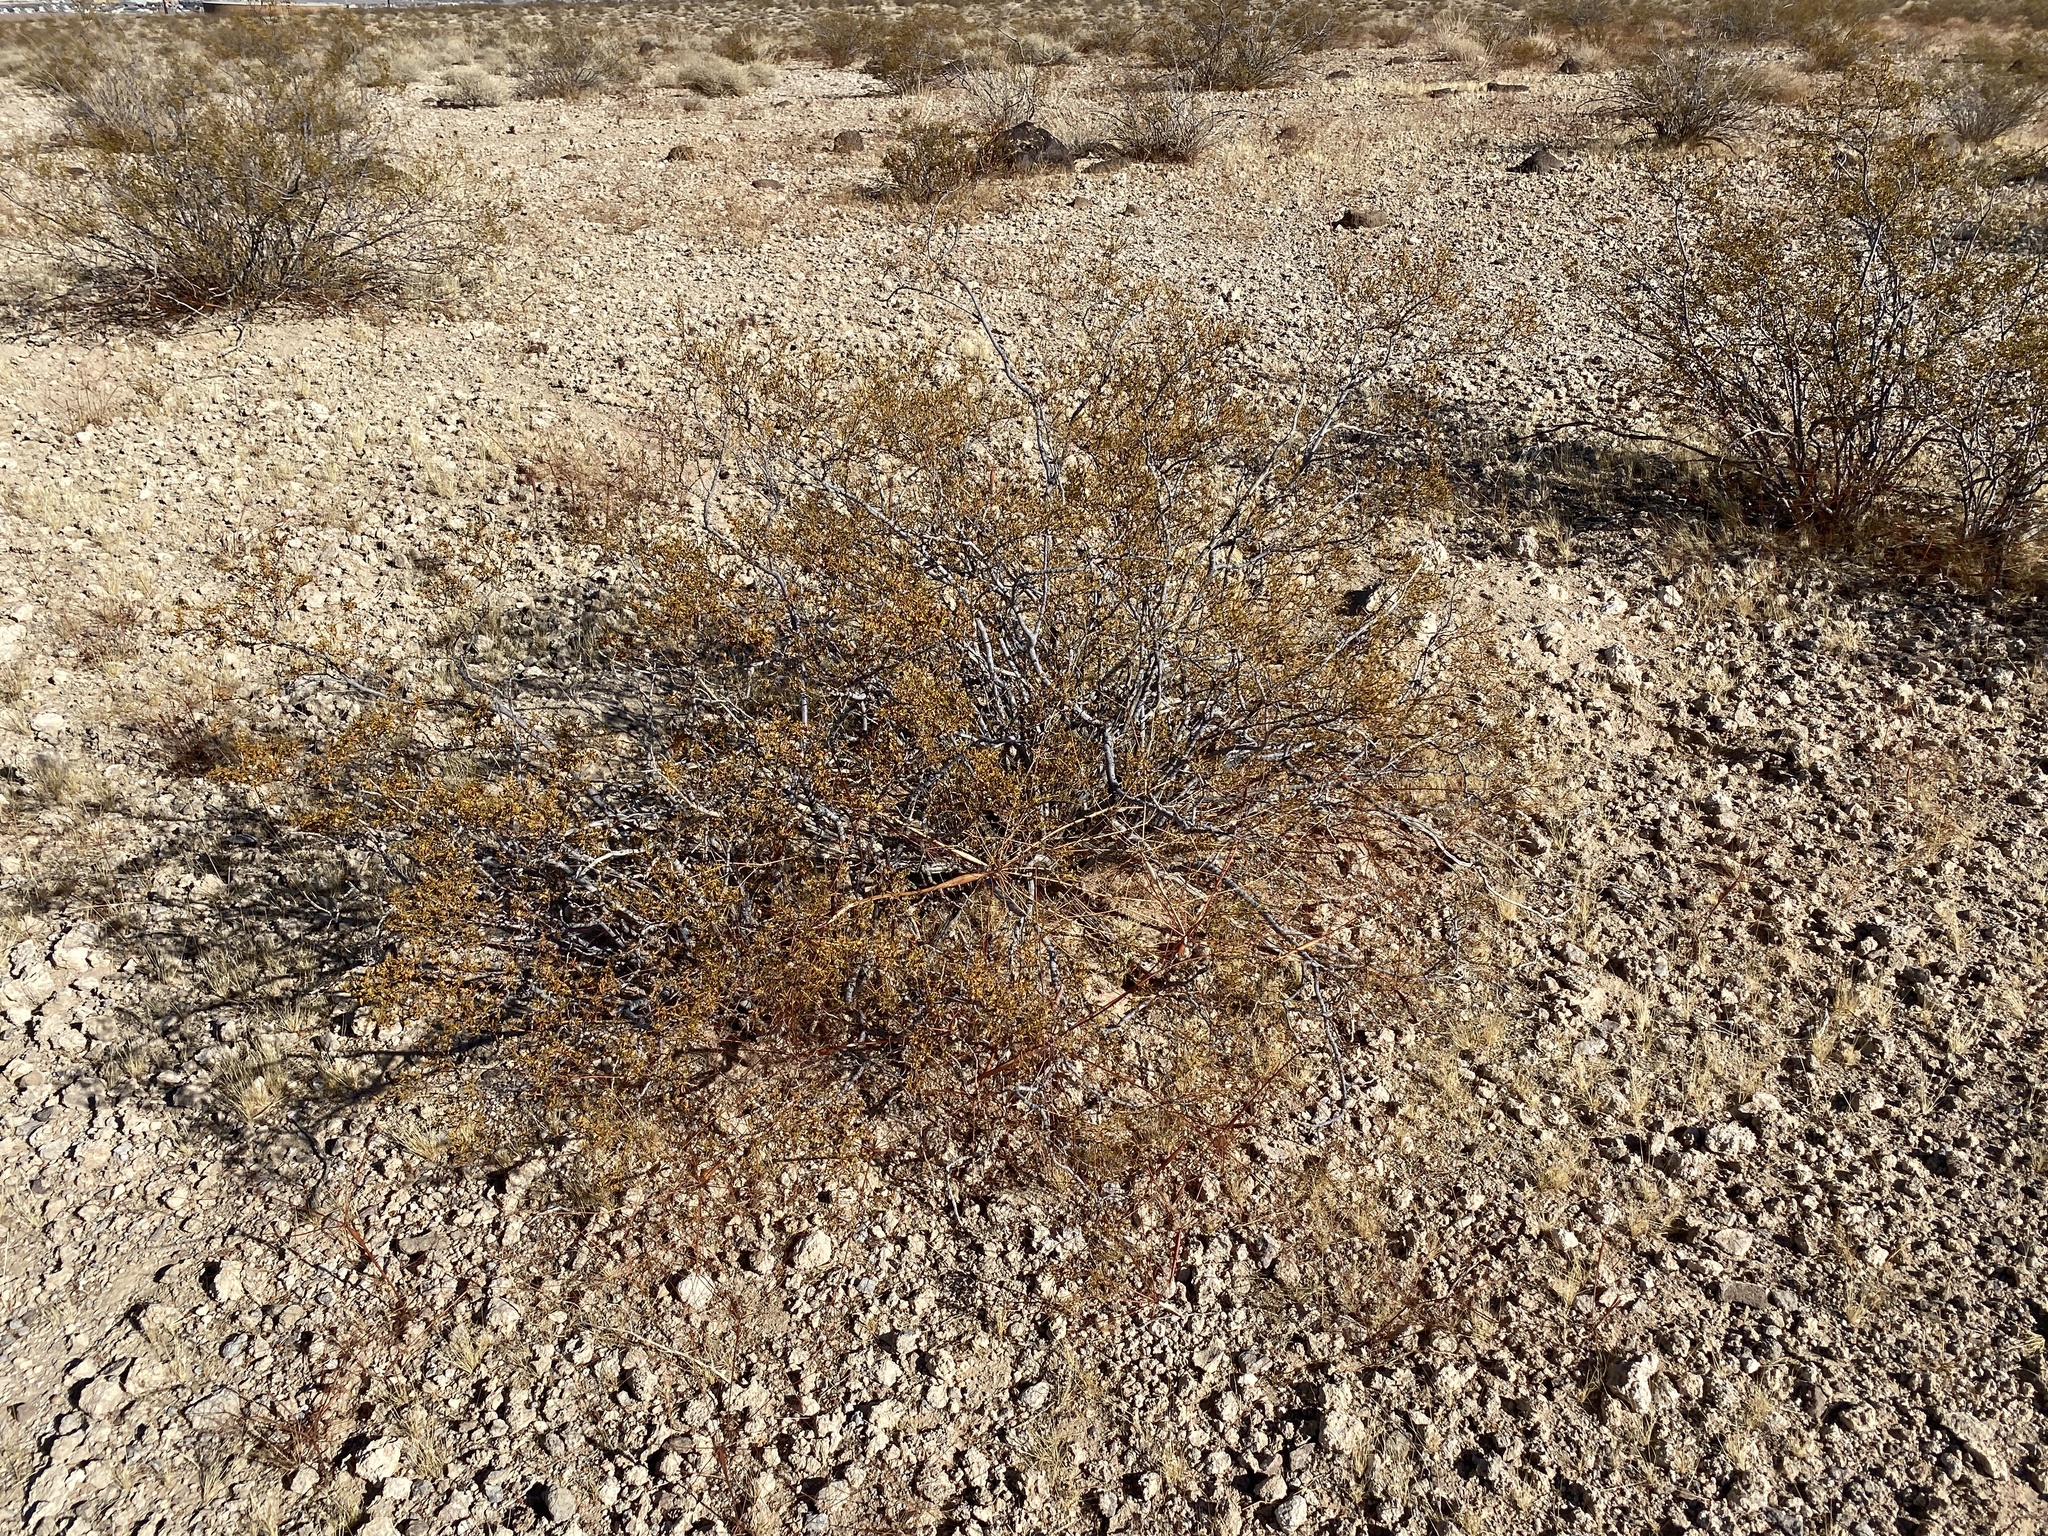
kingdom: Plantae
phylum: Tracheophyta
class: Magnoliopsida
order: Zygophyllales
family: Zygophyllaceae
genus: Larrea
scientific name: Larrea tridentata
